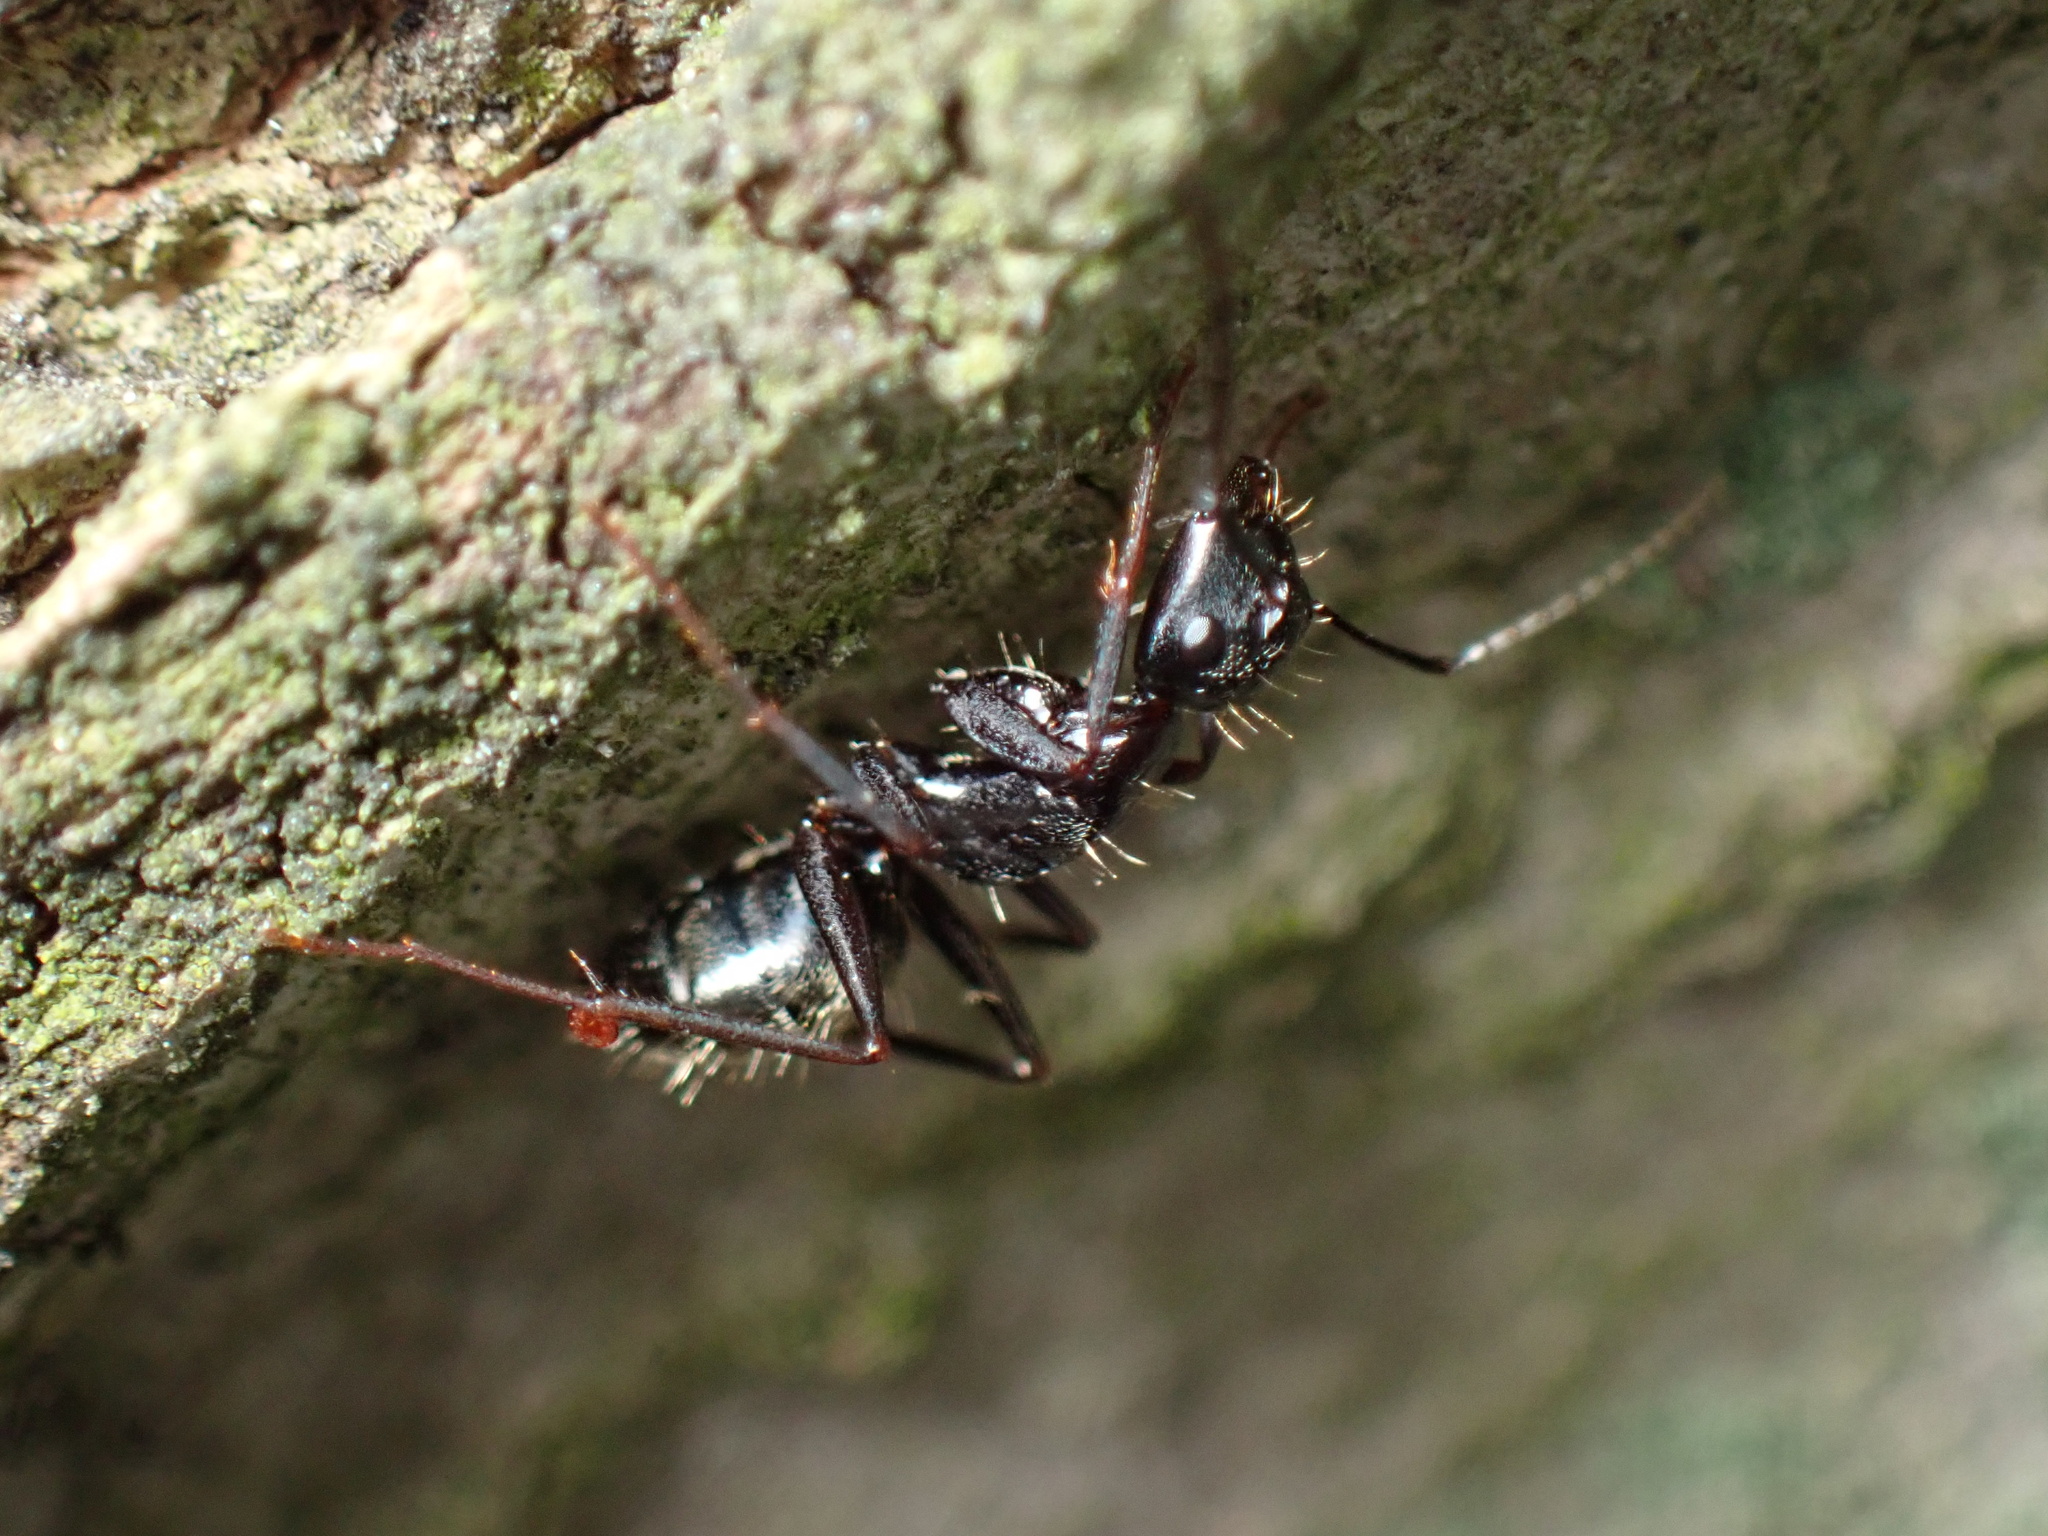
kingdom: Animalia
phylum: Arthropoda
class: Insecta
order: Hymenoptera
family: Formicidae
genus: Camponotus
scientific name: Camponotus pennsylvanicus
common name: Black carpenter ant
